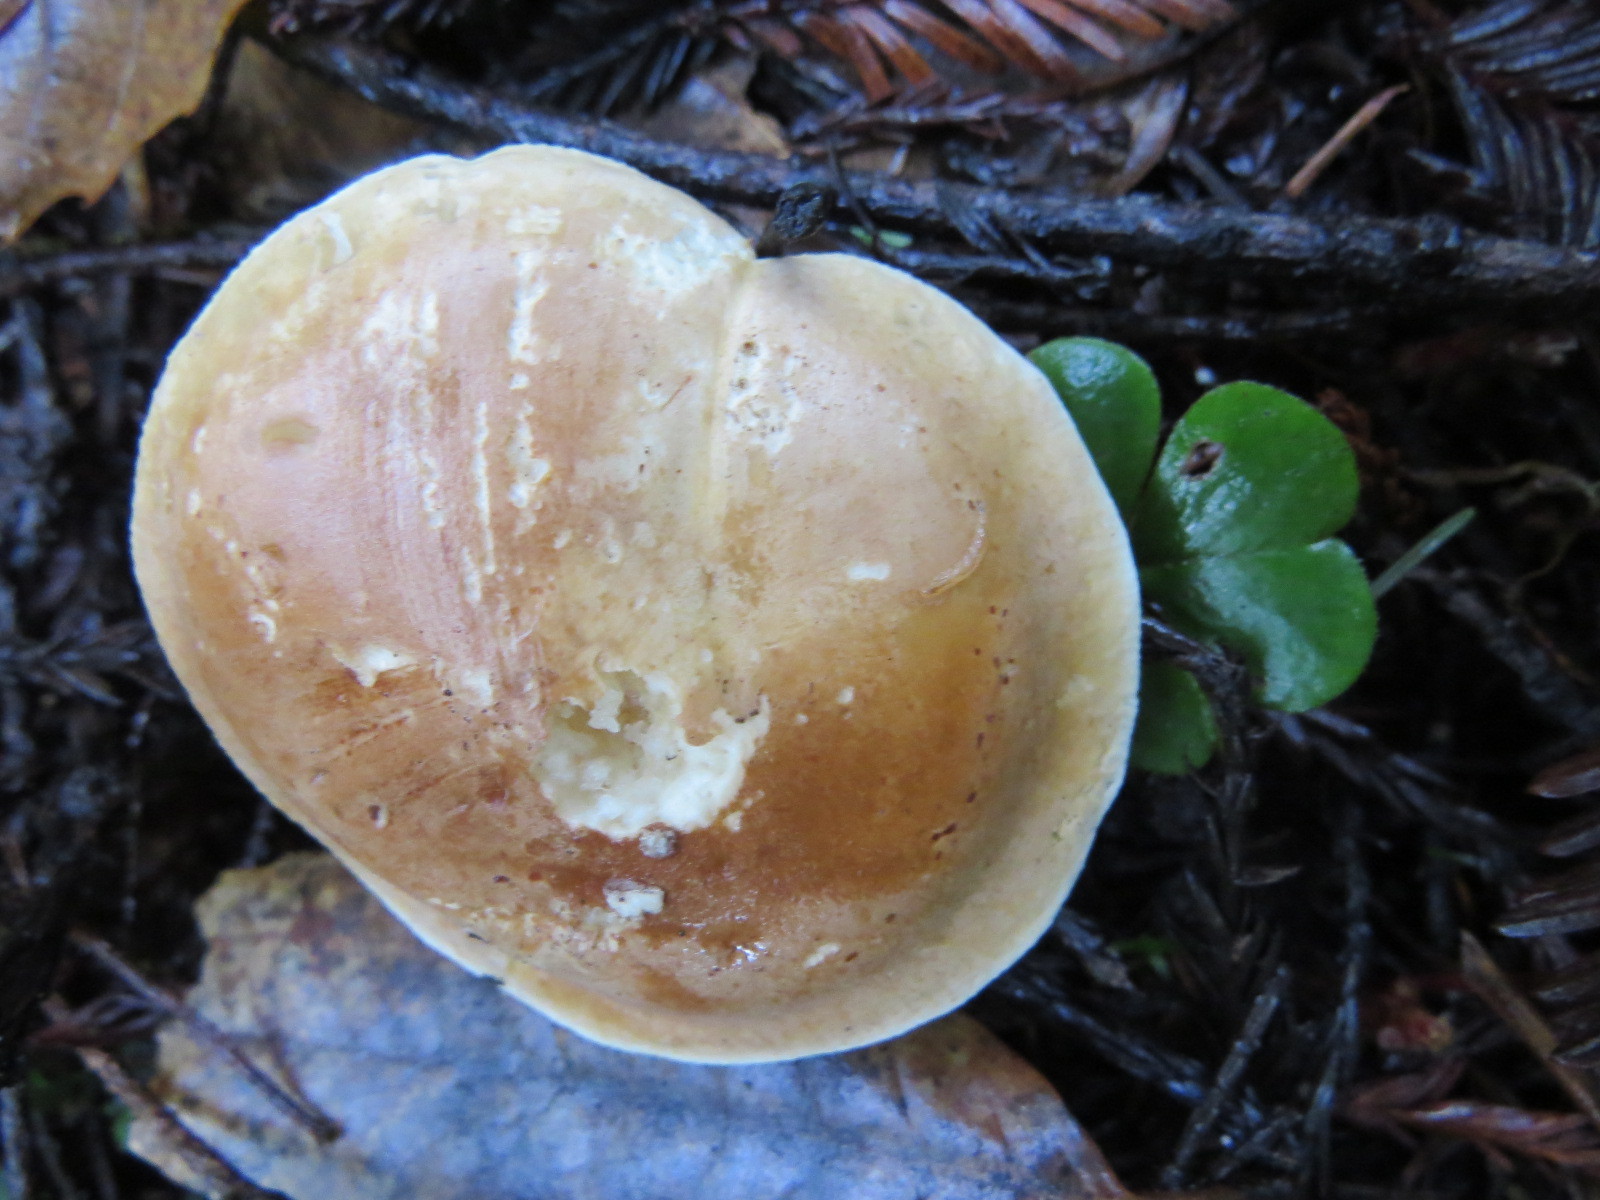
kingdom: Fungi
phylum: Basidiomycota
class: Agaricomycetes
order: Agaricales
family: Tricholomataceae
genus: Leucopaxillus
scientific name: Leucopaxillus gentianeus
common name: Bitter funnel
